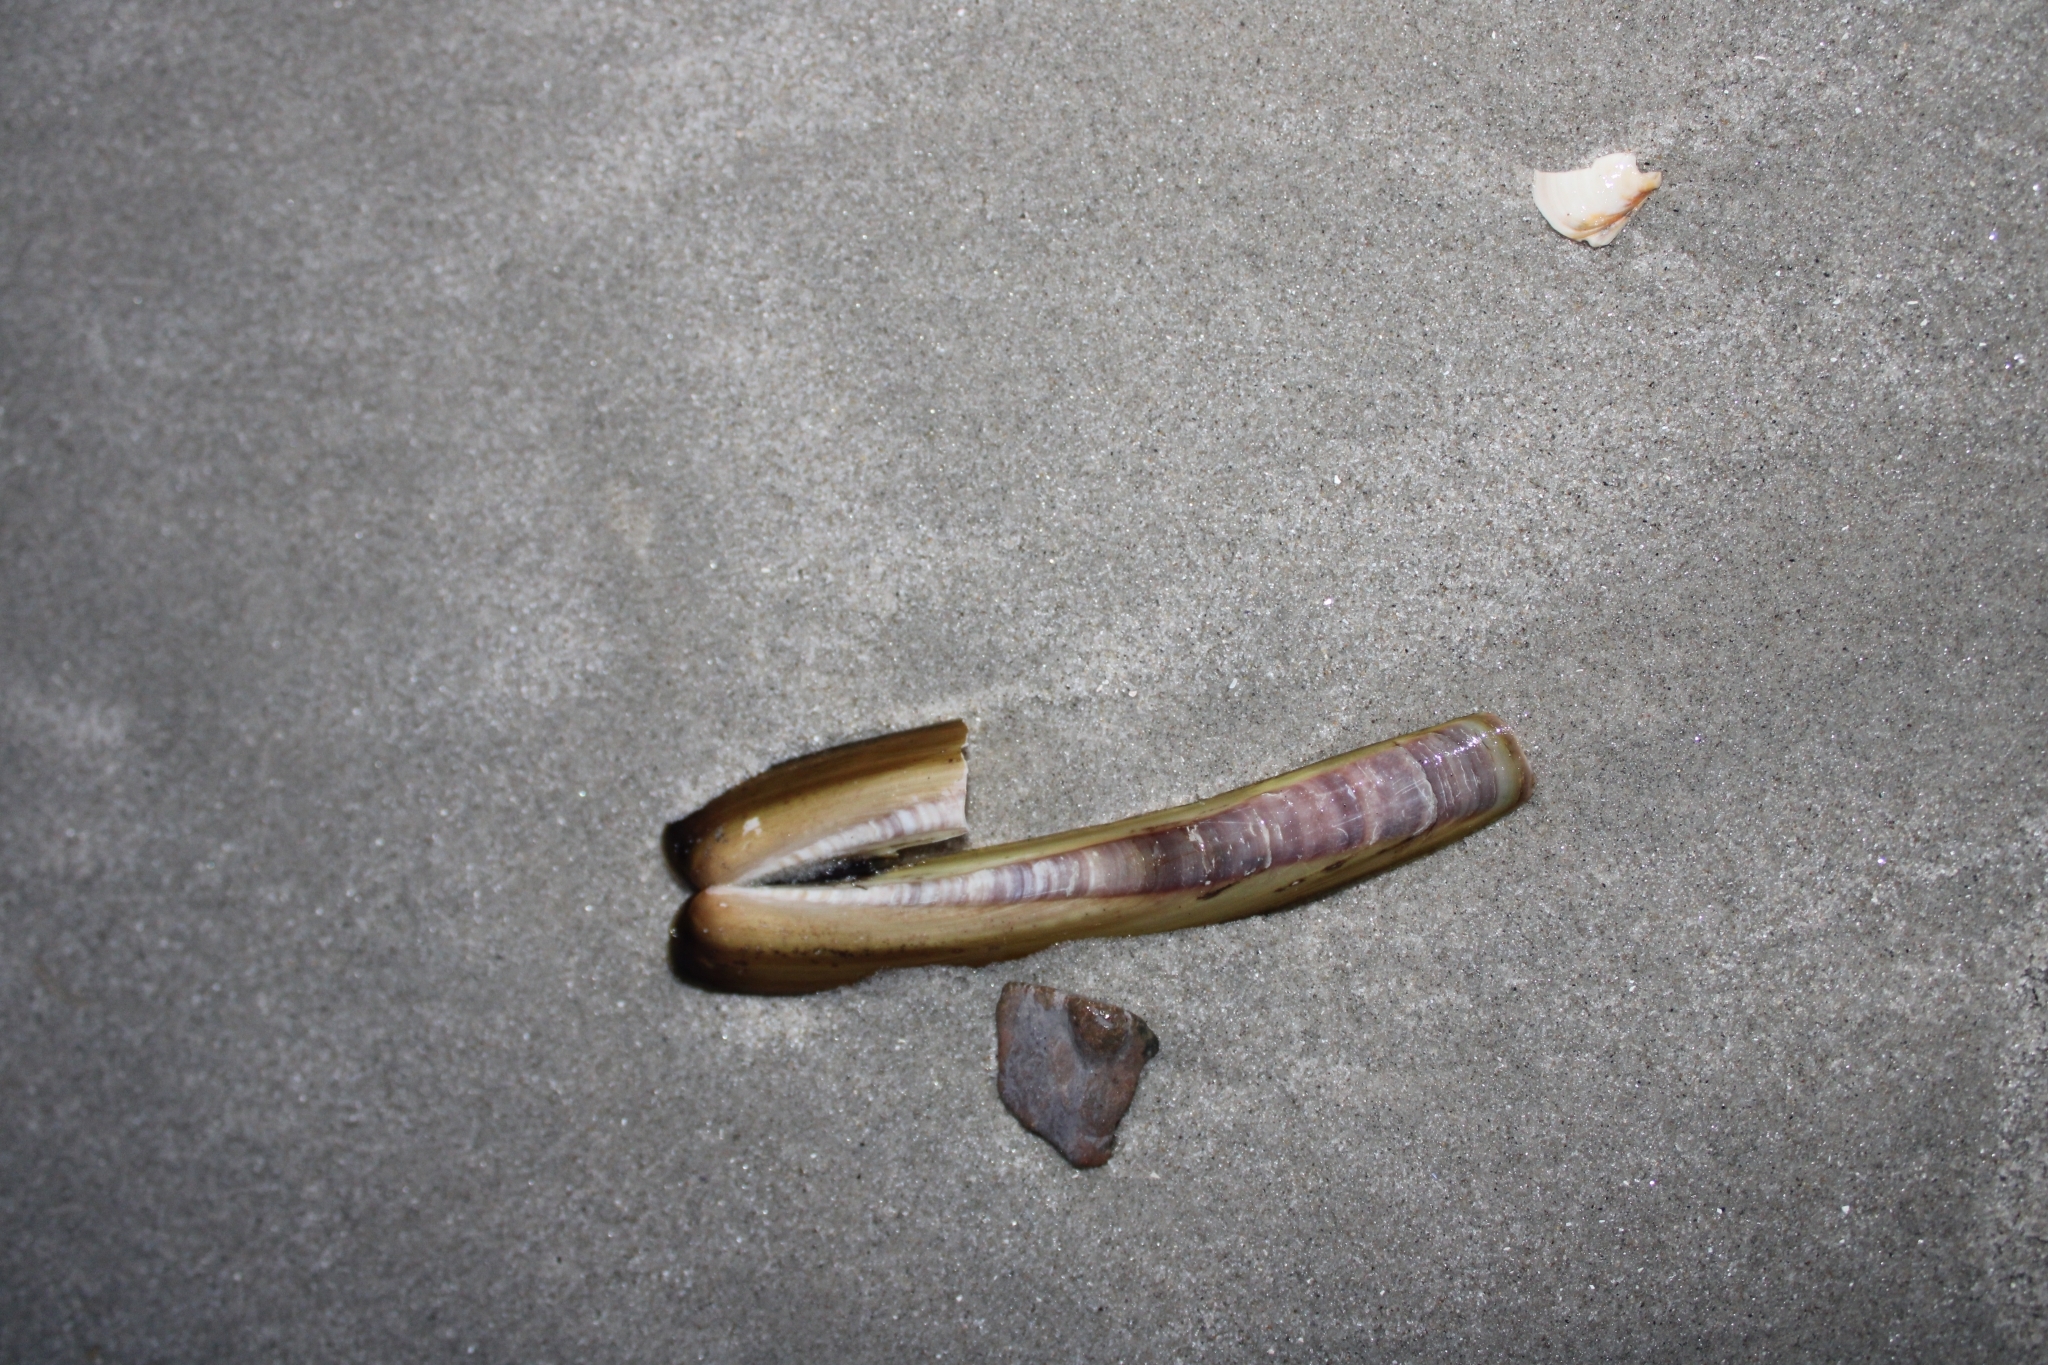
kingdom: Animalia
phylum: Mollusca
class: Bivalvia
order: Adapedonta
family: Pharidae
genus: Ensis
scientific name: Ensis leei
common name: American jack knife clam
